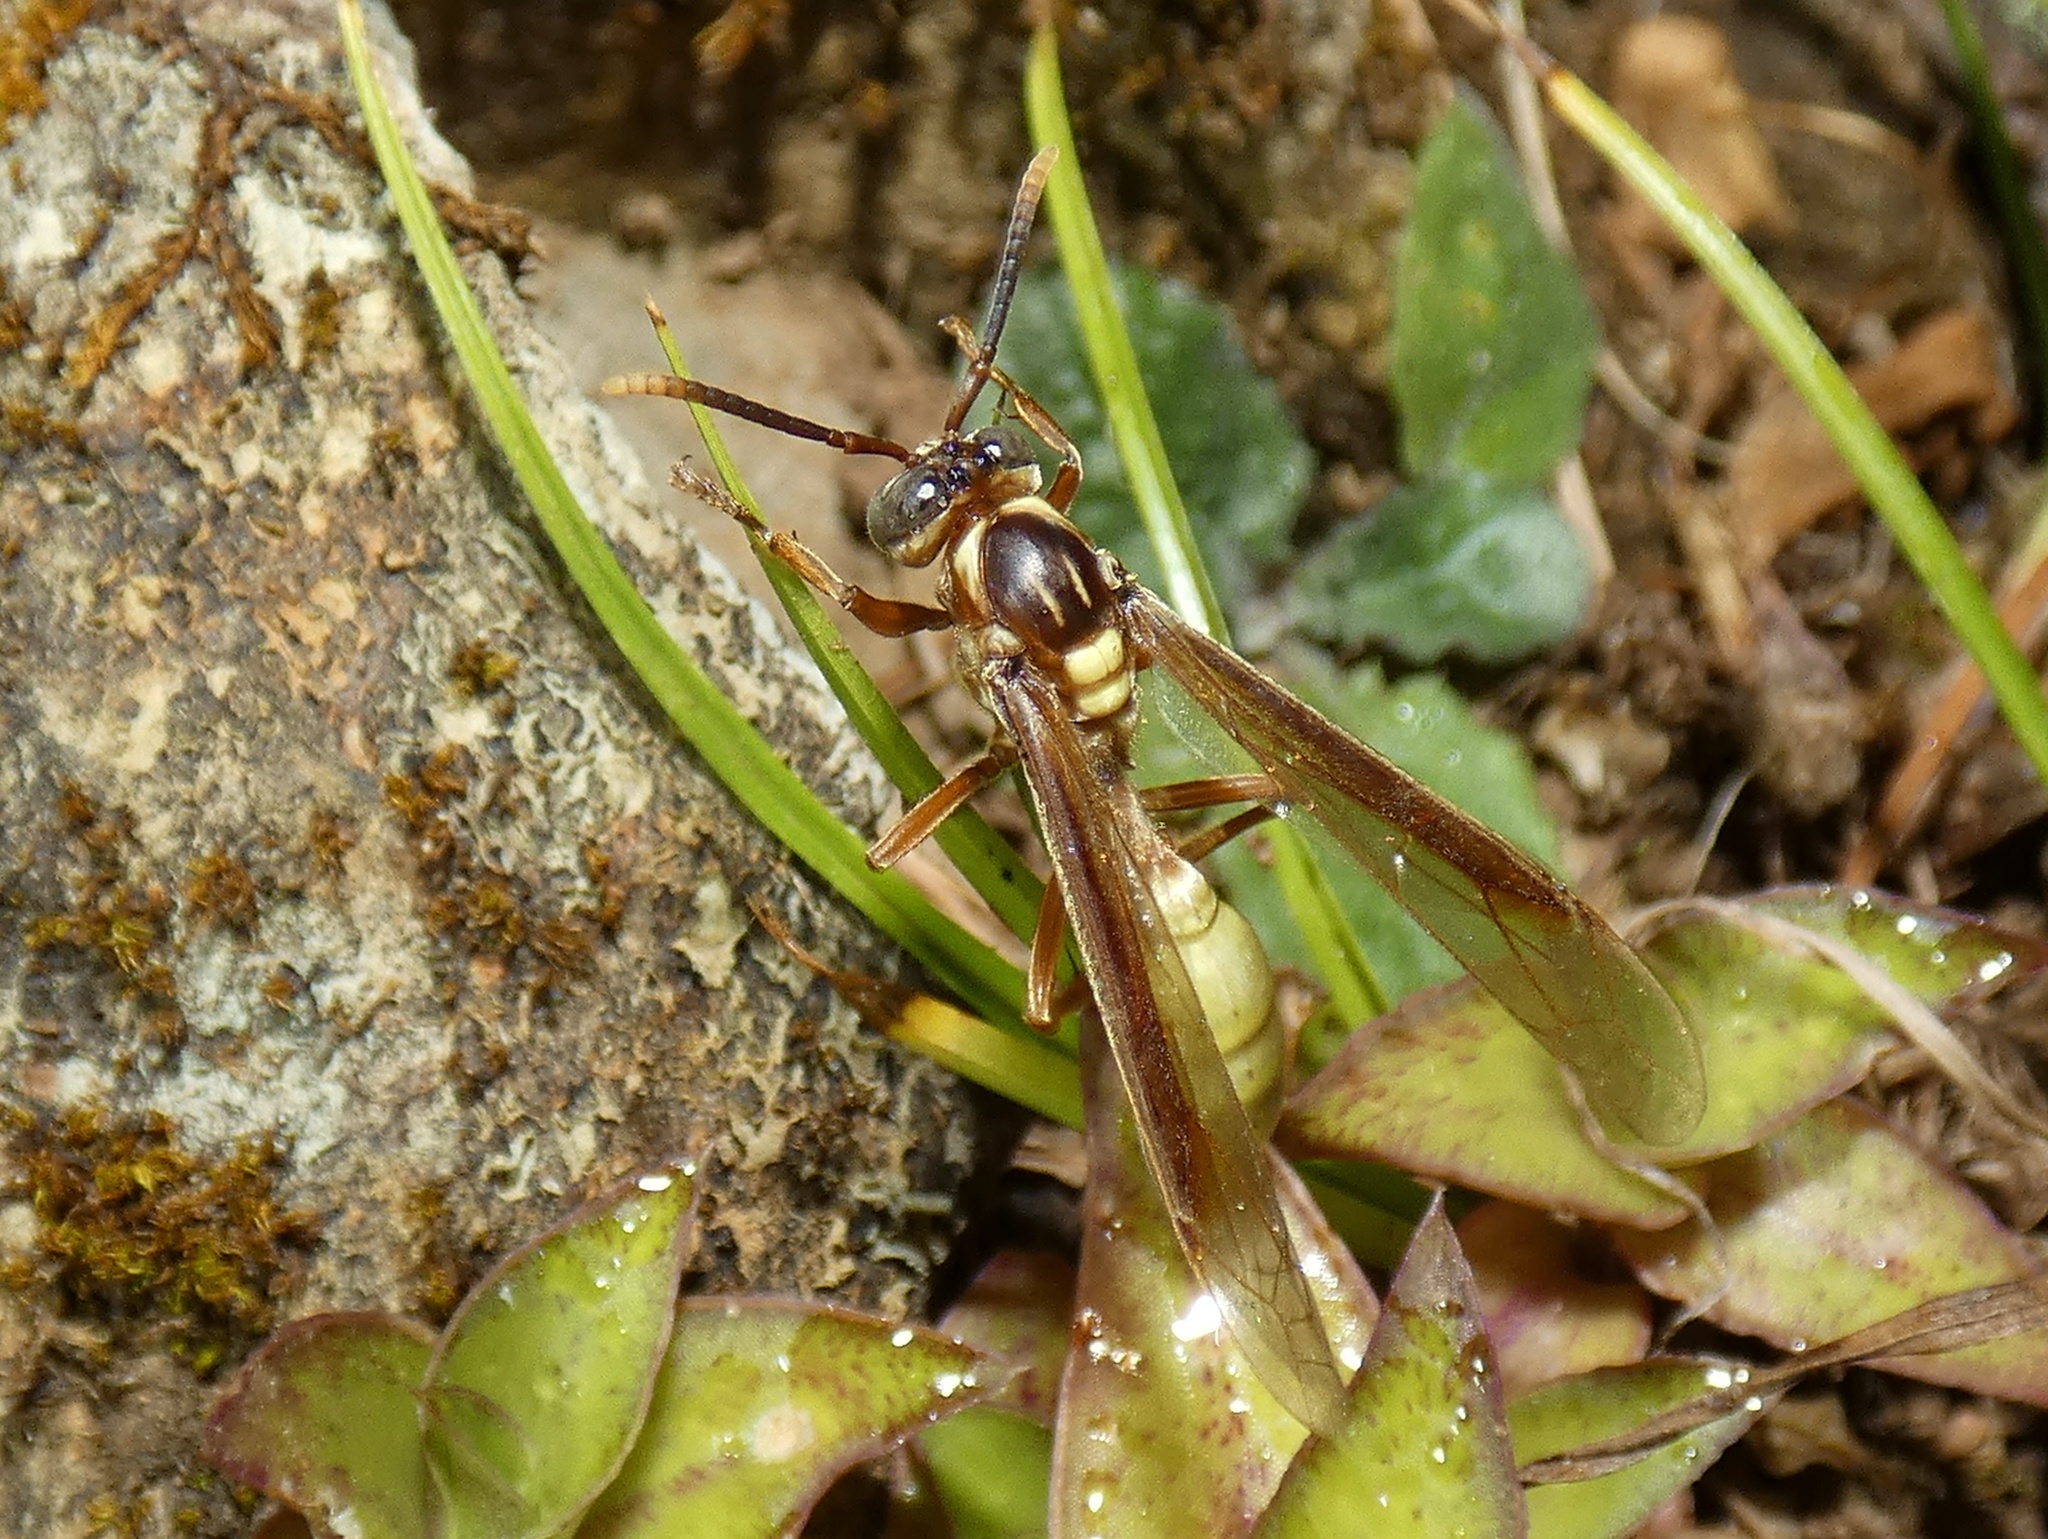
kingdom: Animalia
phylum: Arthropoda
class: Insecta
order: Hymenoptera
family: Vespidae
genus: Apoica
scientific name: Apoica pallens
